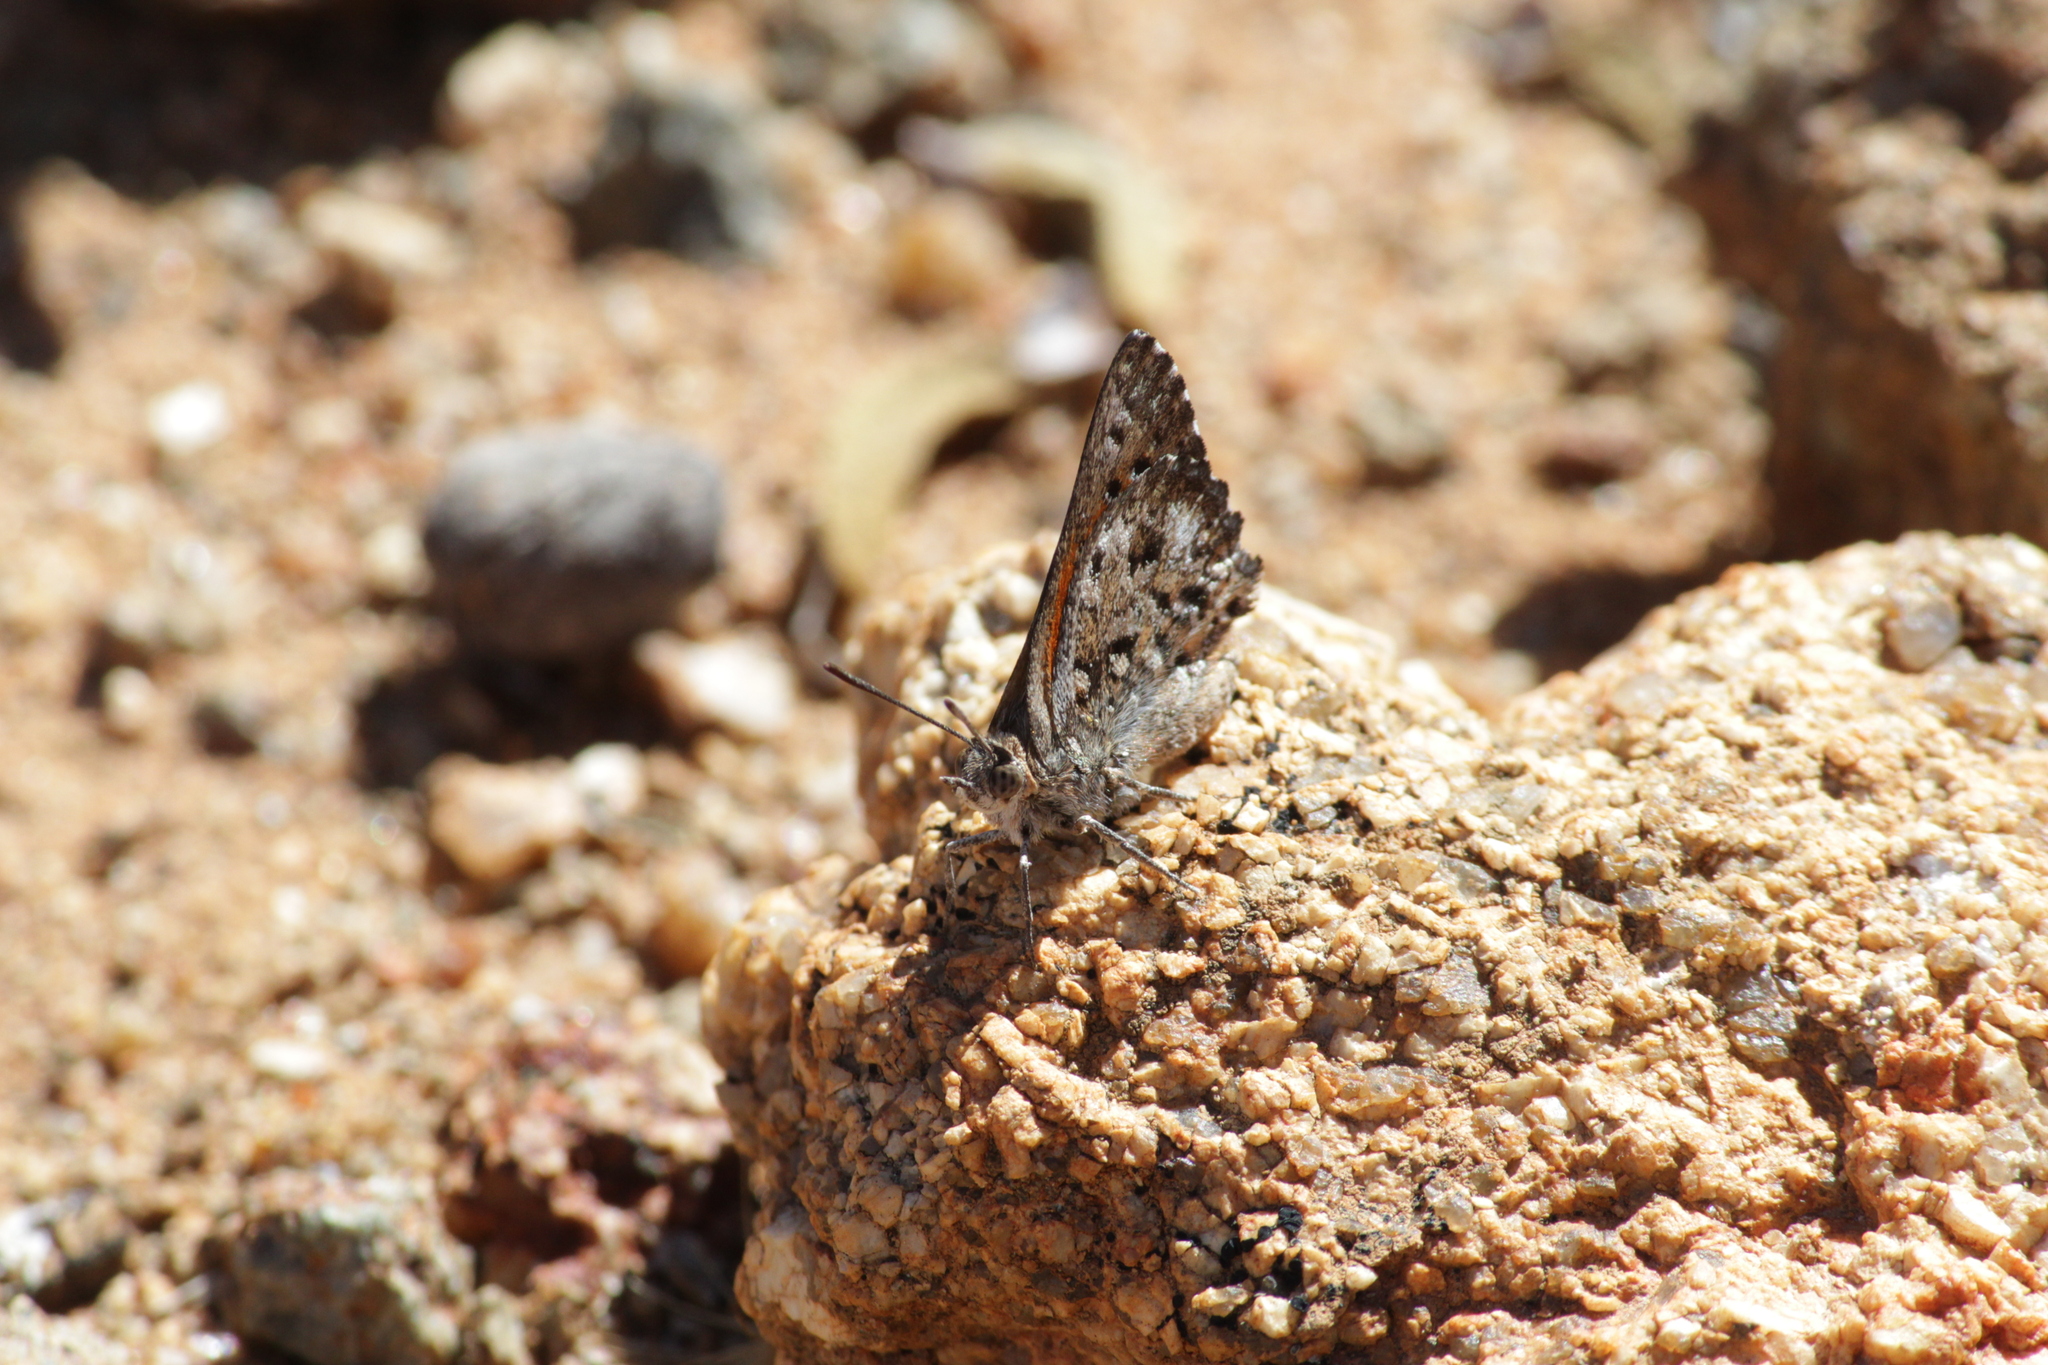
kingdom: Animalia
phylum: Arthropoda
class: Insecta
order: Lepidoptera
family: Lycaenidae
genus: Aloeides
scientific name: Aloeides arida
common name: Arid copper
